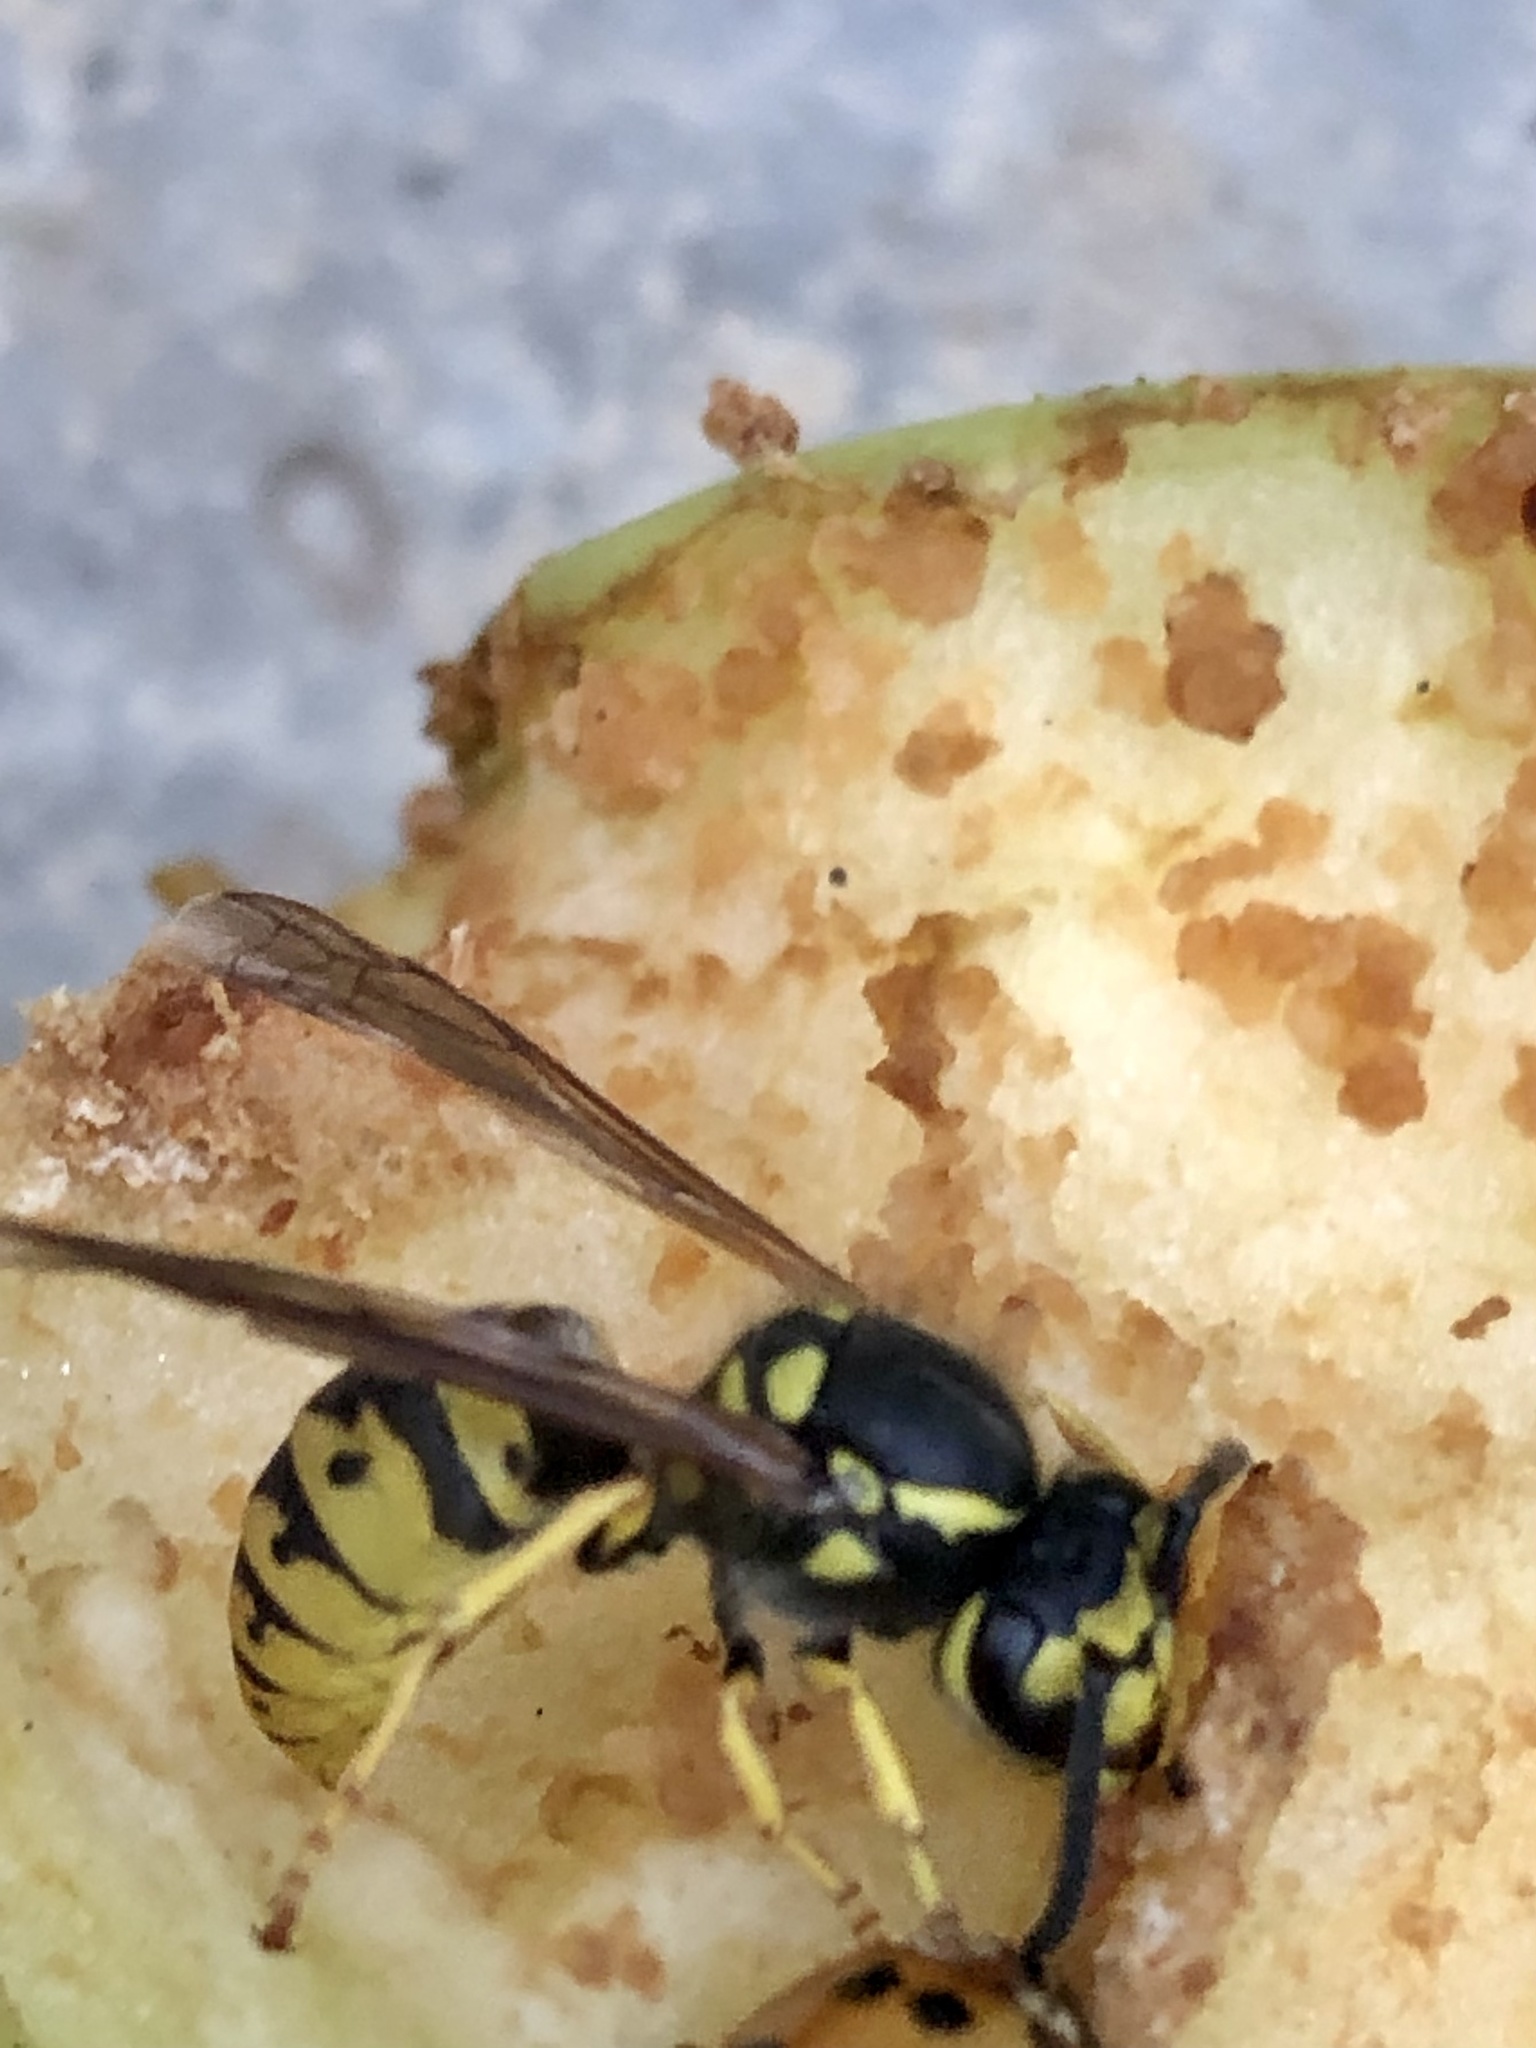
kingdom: Animalia
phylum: Arthropoda
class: Insecta
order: Hymenoptera
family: Vespidae
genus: Vespula
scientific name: Vespula germanica
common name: German wasp
